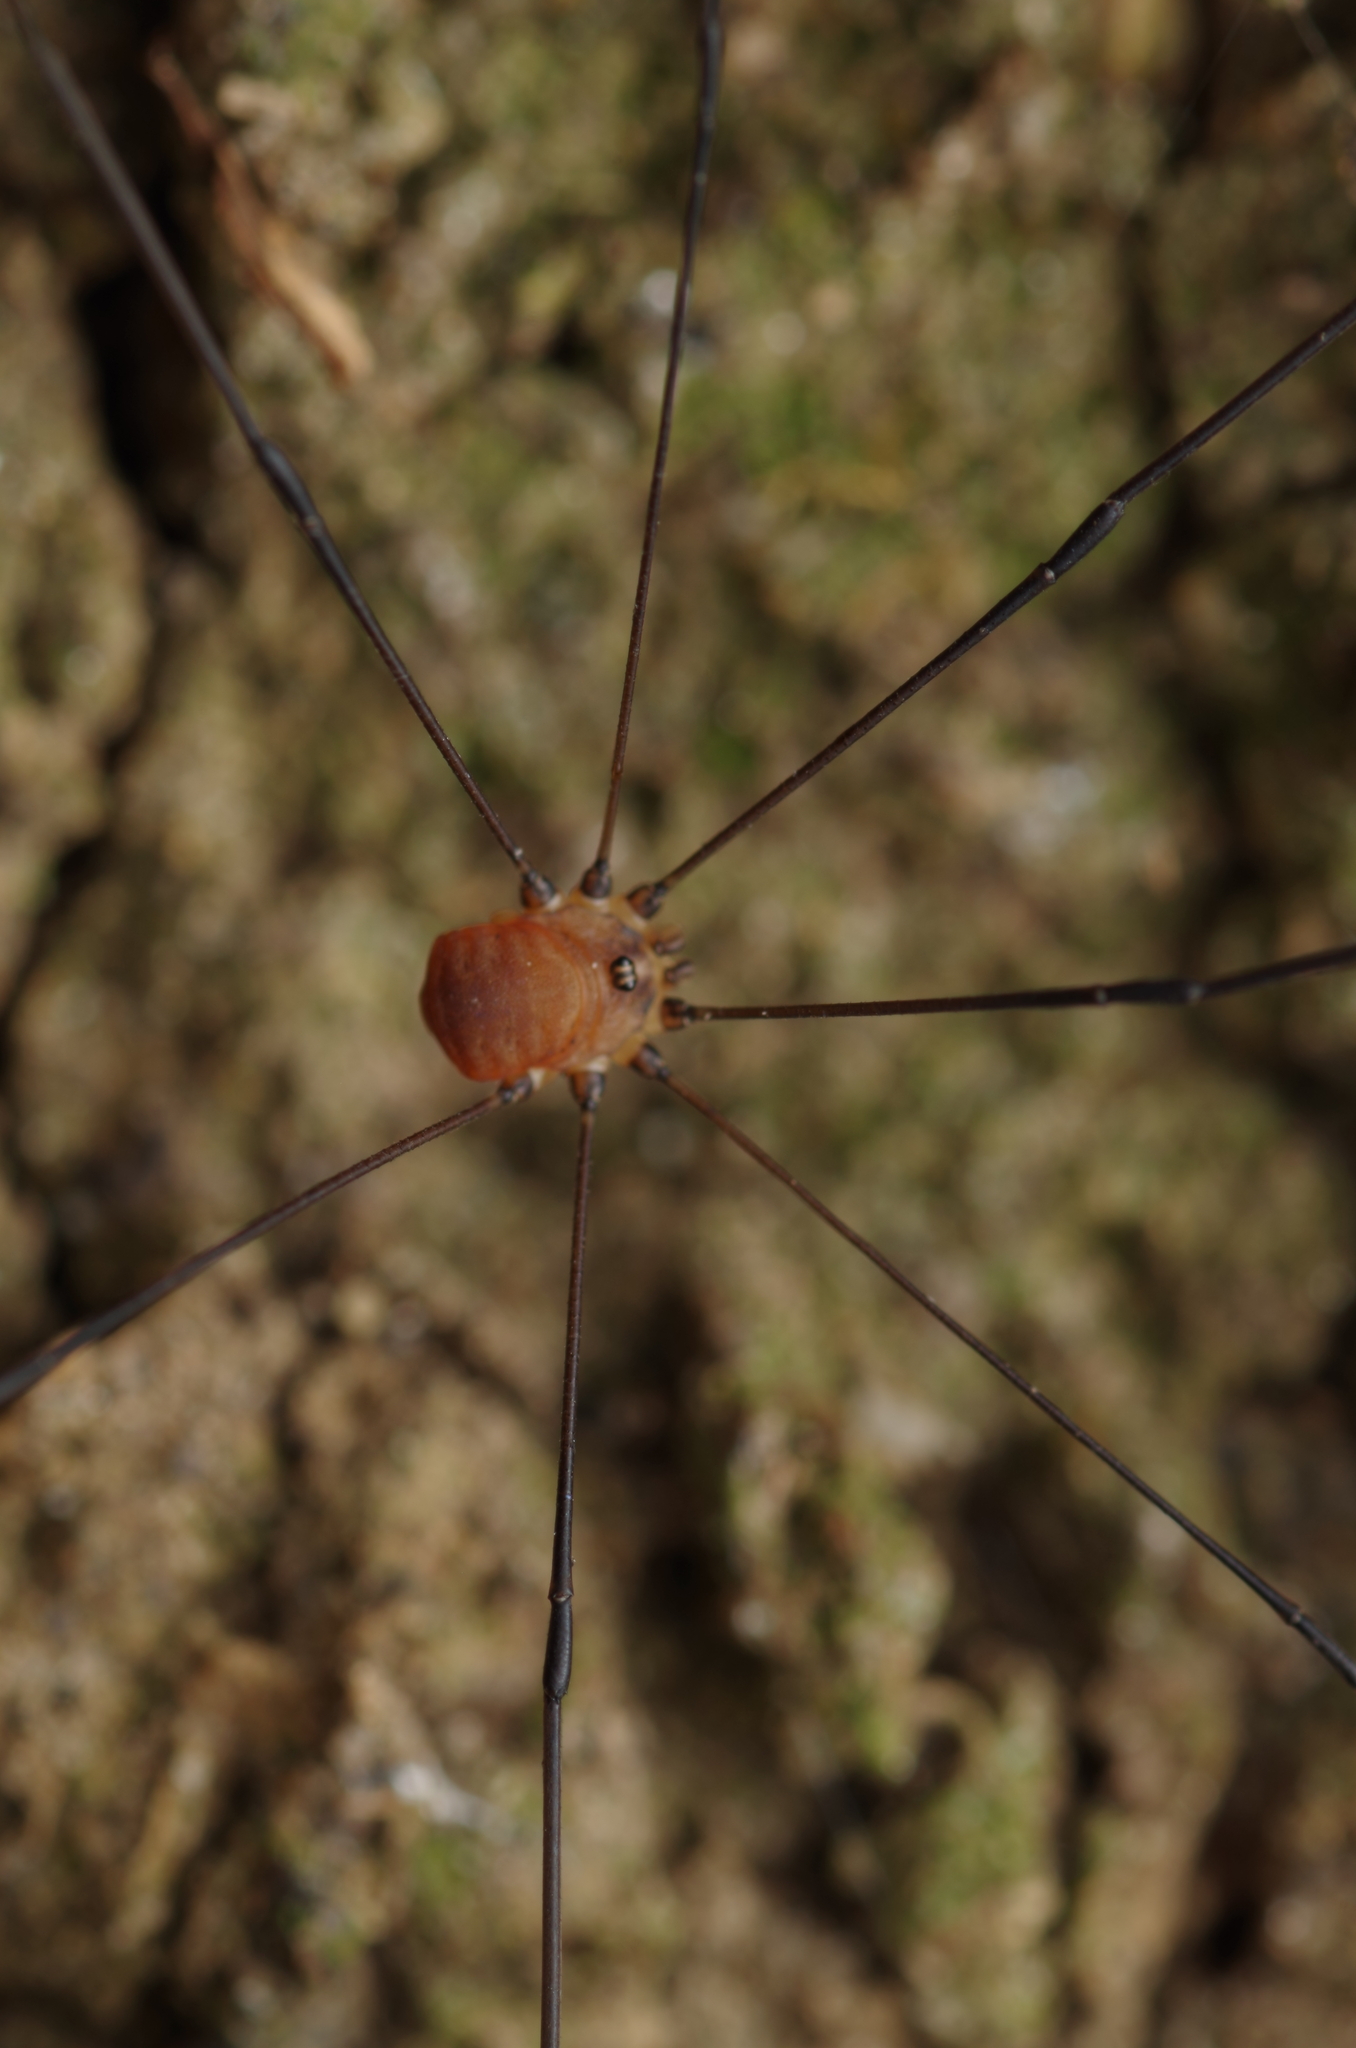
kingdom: Animalia
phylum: Arthropoda
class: Arachnida
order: Opiliones
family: Sclerosomatidae
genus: Leiobunum
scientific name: Leiobunum blackwalli
